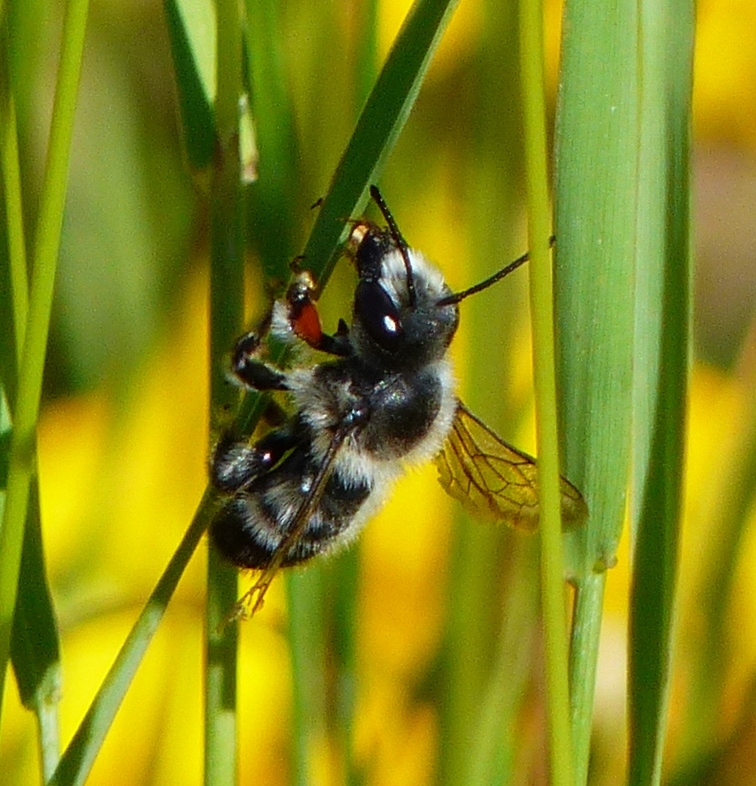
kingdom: Animalia
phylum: Arthropoda
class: Insecta
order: Hymenoptera
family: Megachilidae
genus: Megachile
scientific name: Megachile melanophaea
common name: Black-and-gray leafcutter bee
